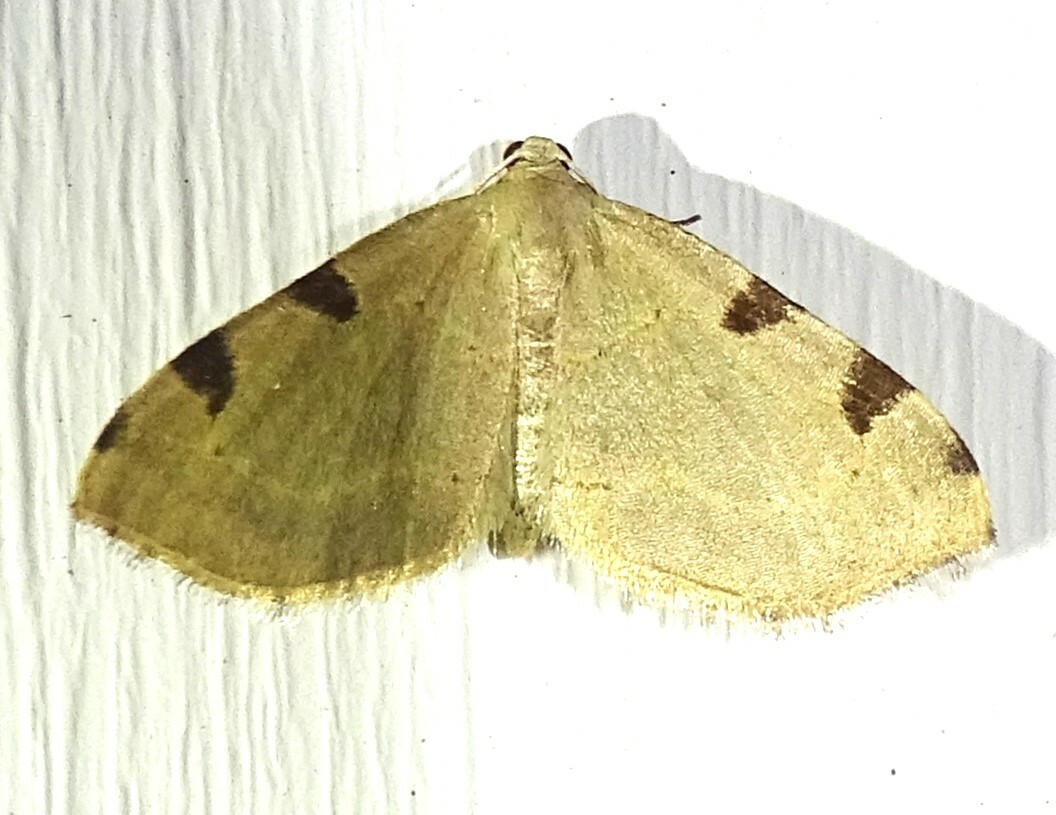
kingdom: Animalia
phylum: Arthropoda
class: Insecta
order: Lepidoptera
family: Geometridae
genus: Heterophleps
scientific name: Heterophleps triguttaria
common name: Three-spotted fillip
